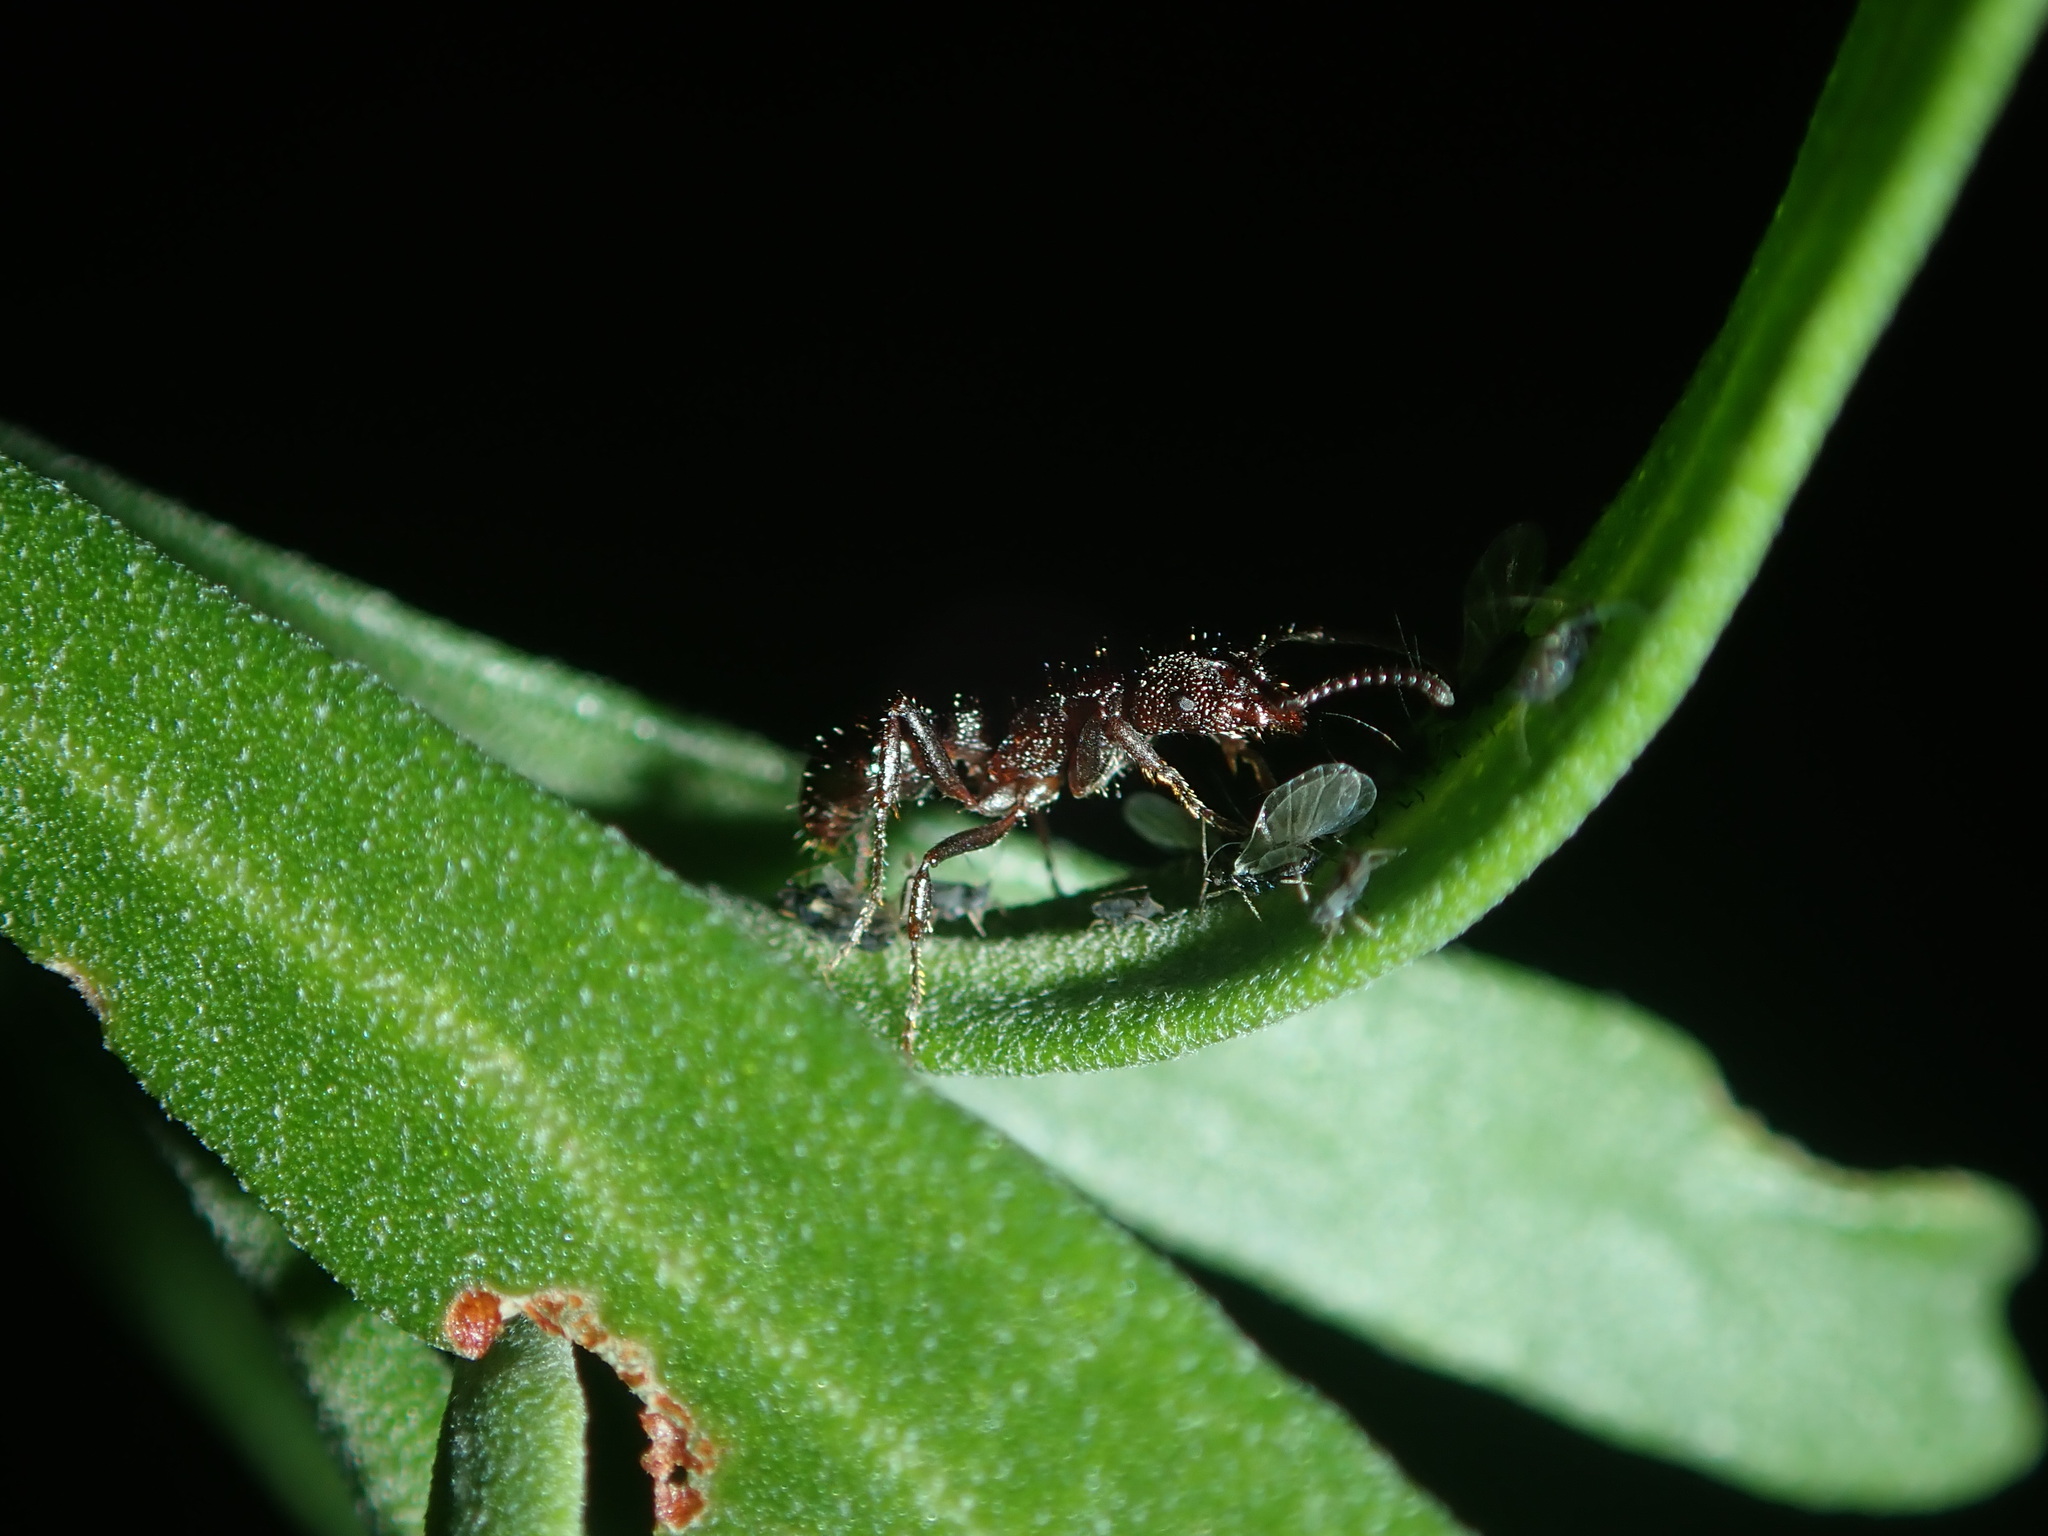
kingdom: Animalia
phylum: Arthropoda
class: Insecta
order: Hymenoptera
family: Formicidae
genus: Rhytidoponera
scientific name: Rhytidoponera metallica
